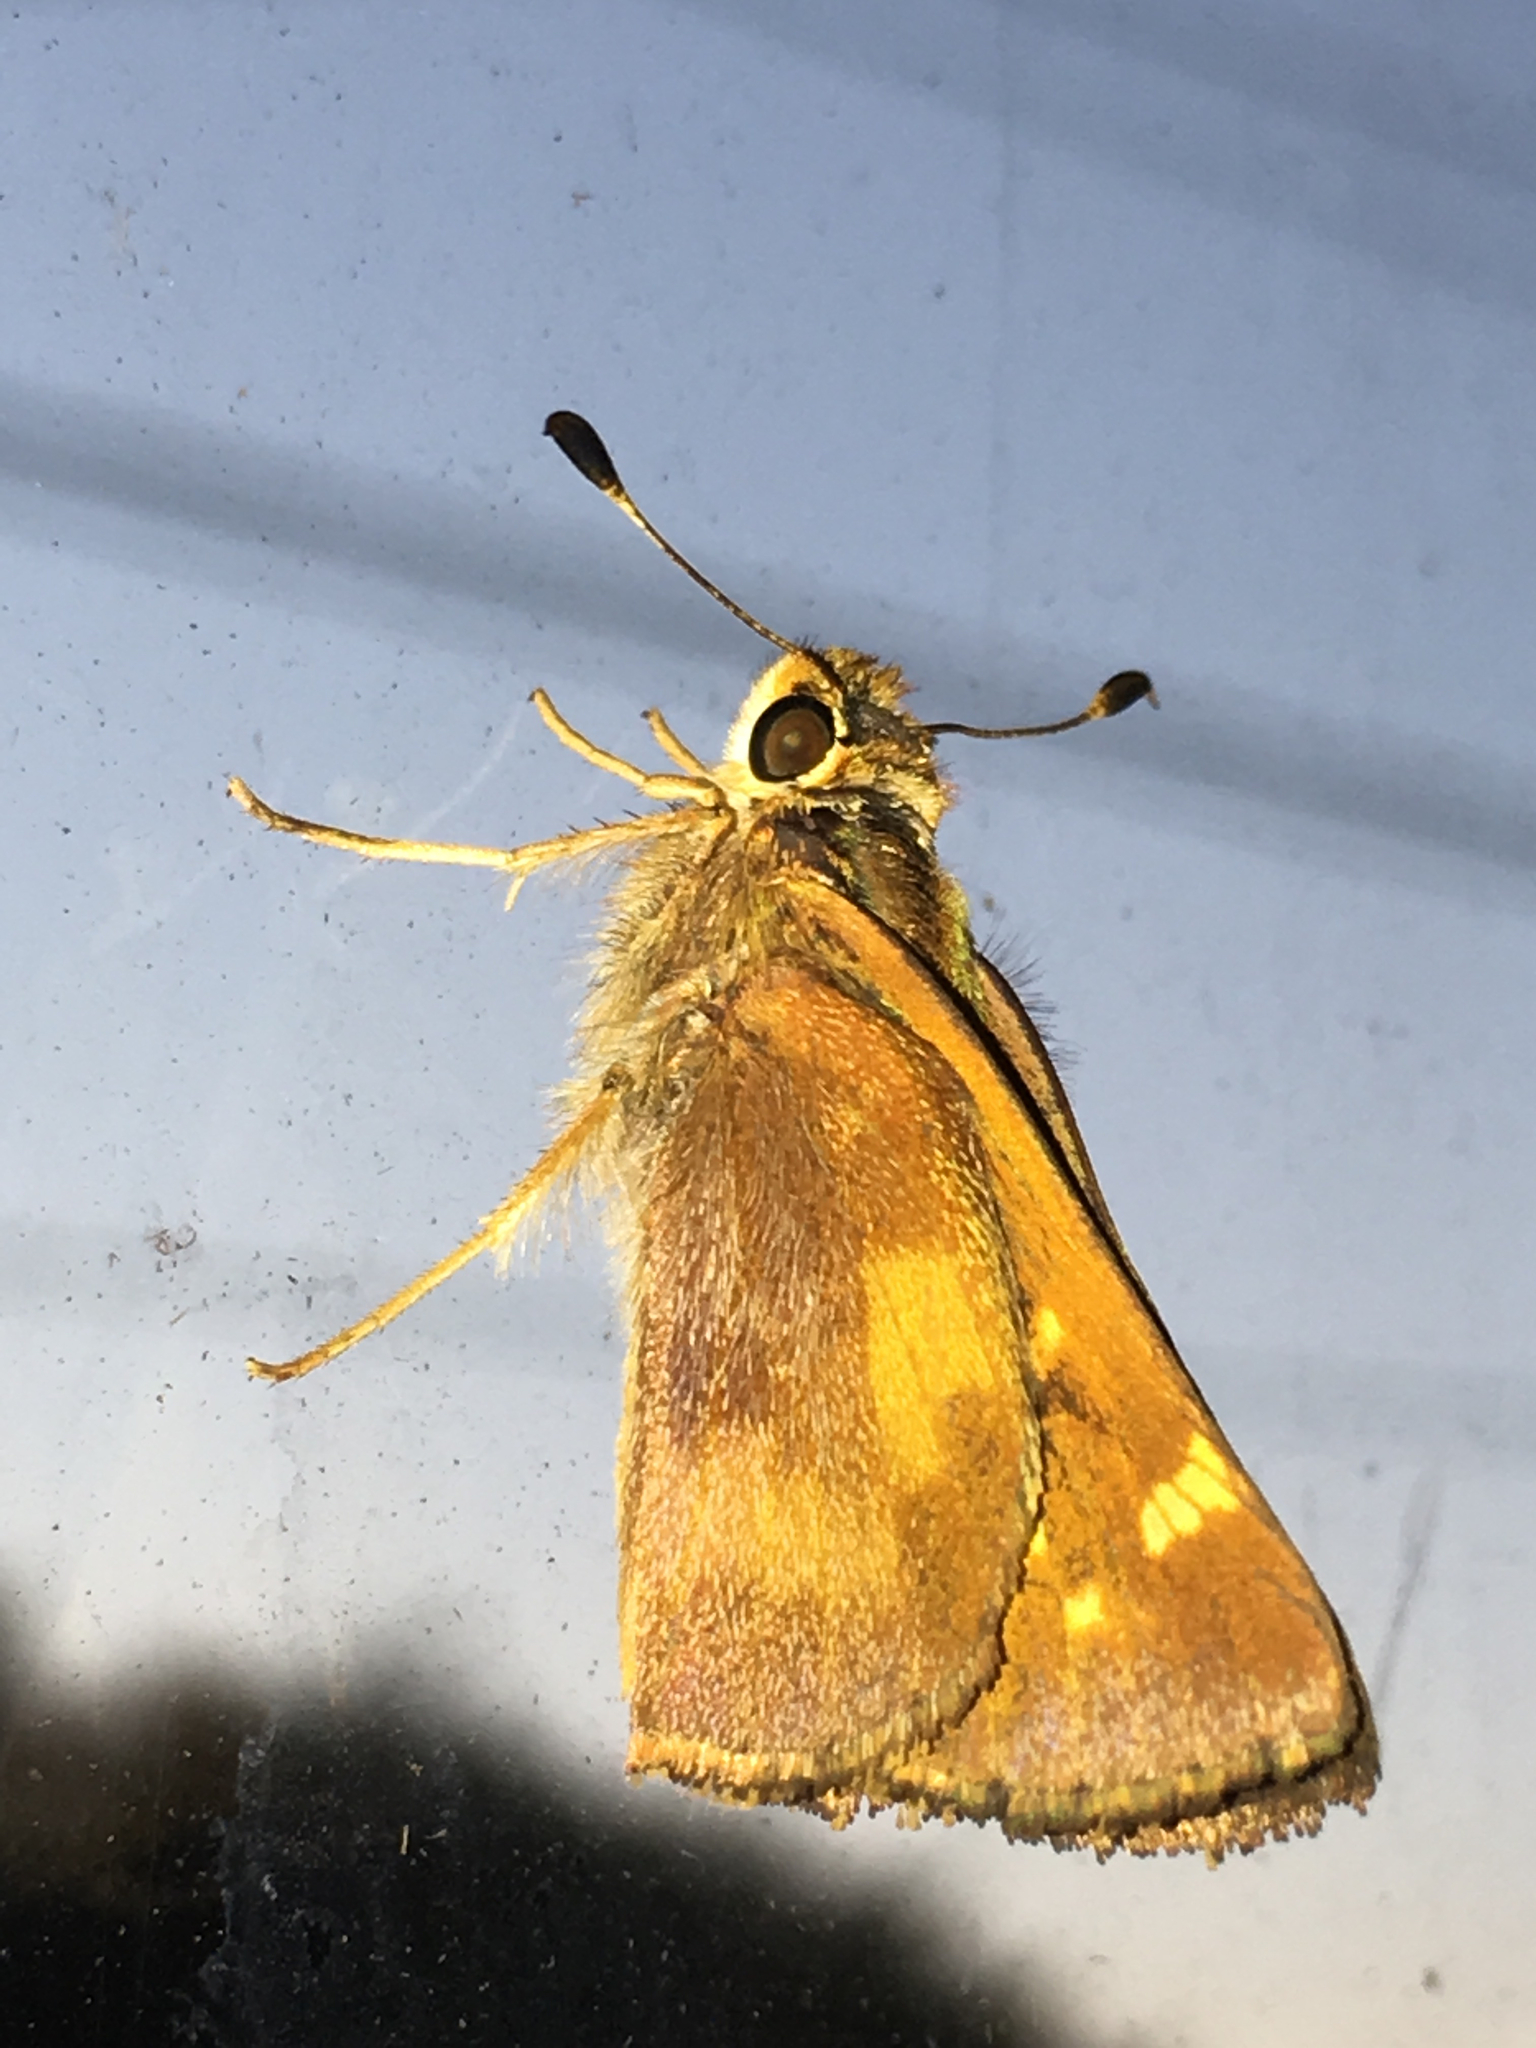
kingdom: Animalia
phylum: Arthropoda
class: Insecta
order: Lepidoptera
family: Hesperiidae
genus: Lon
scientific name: Lon melane
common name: Umber skipper
